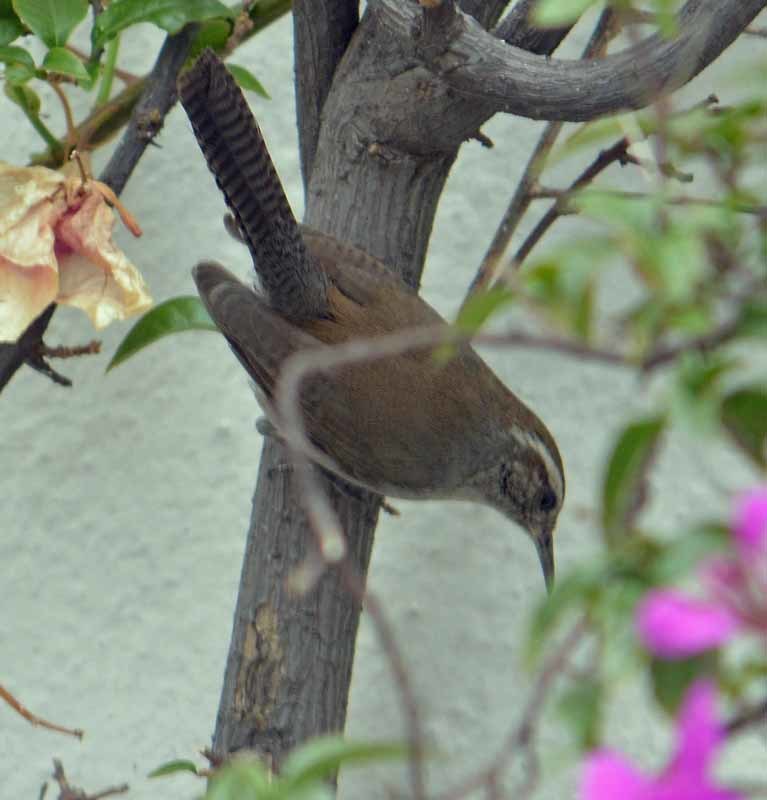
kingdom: Animalia
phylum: Chordata
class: Aves
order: Passeriformes
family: Troglodytidae
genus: Thryomanes
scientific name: Thryomanes bewickii
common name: Bewick's wren
